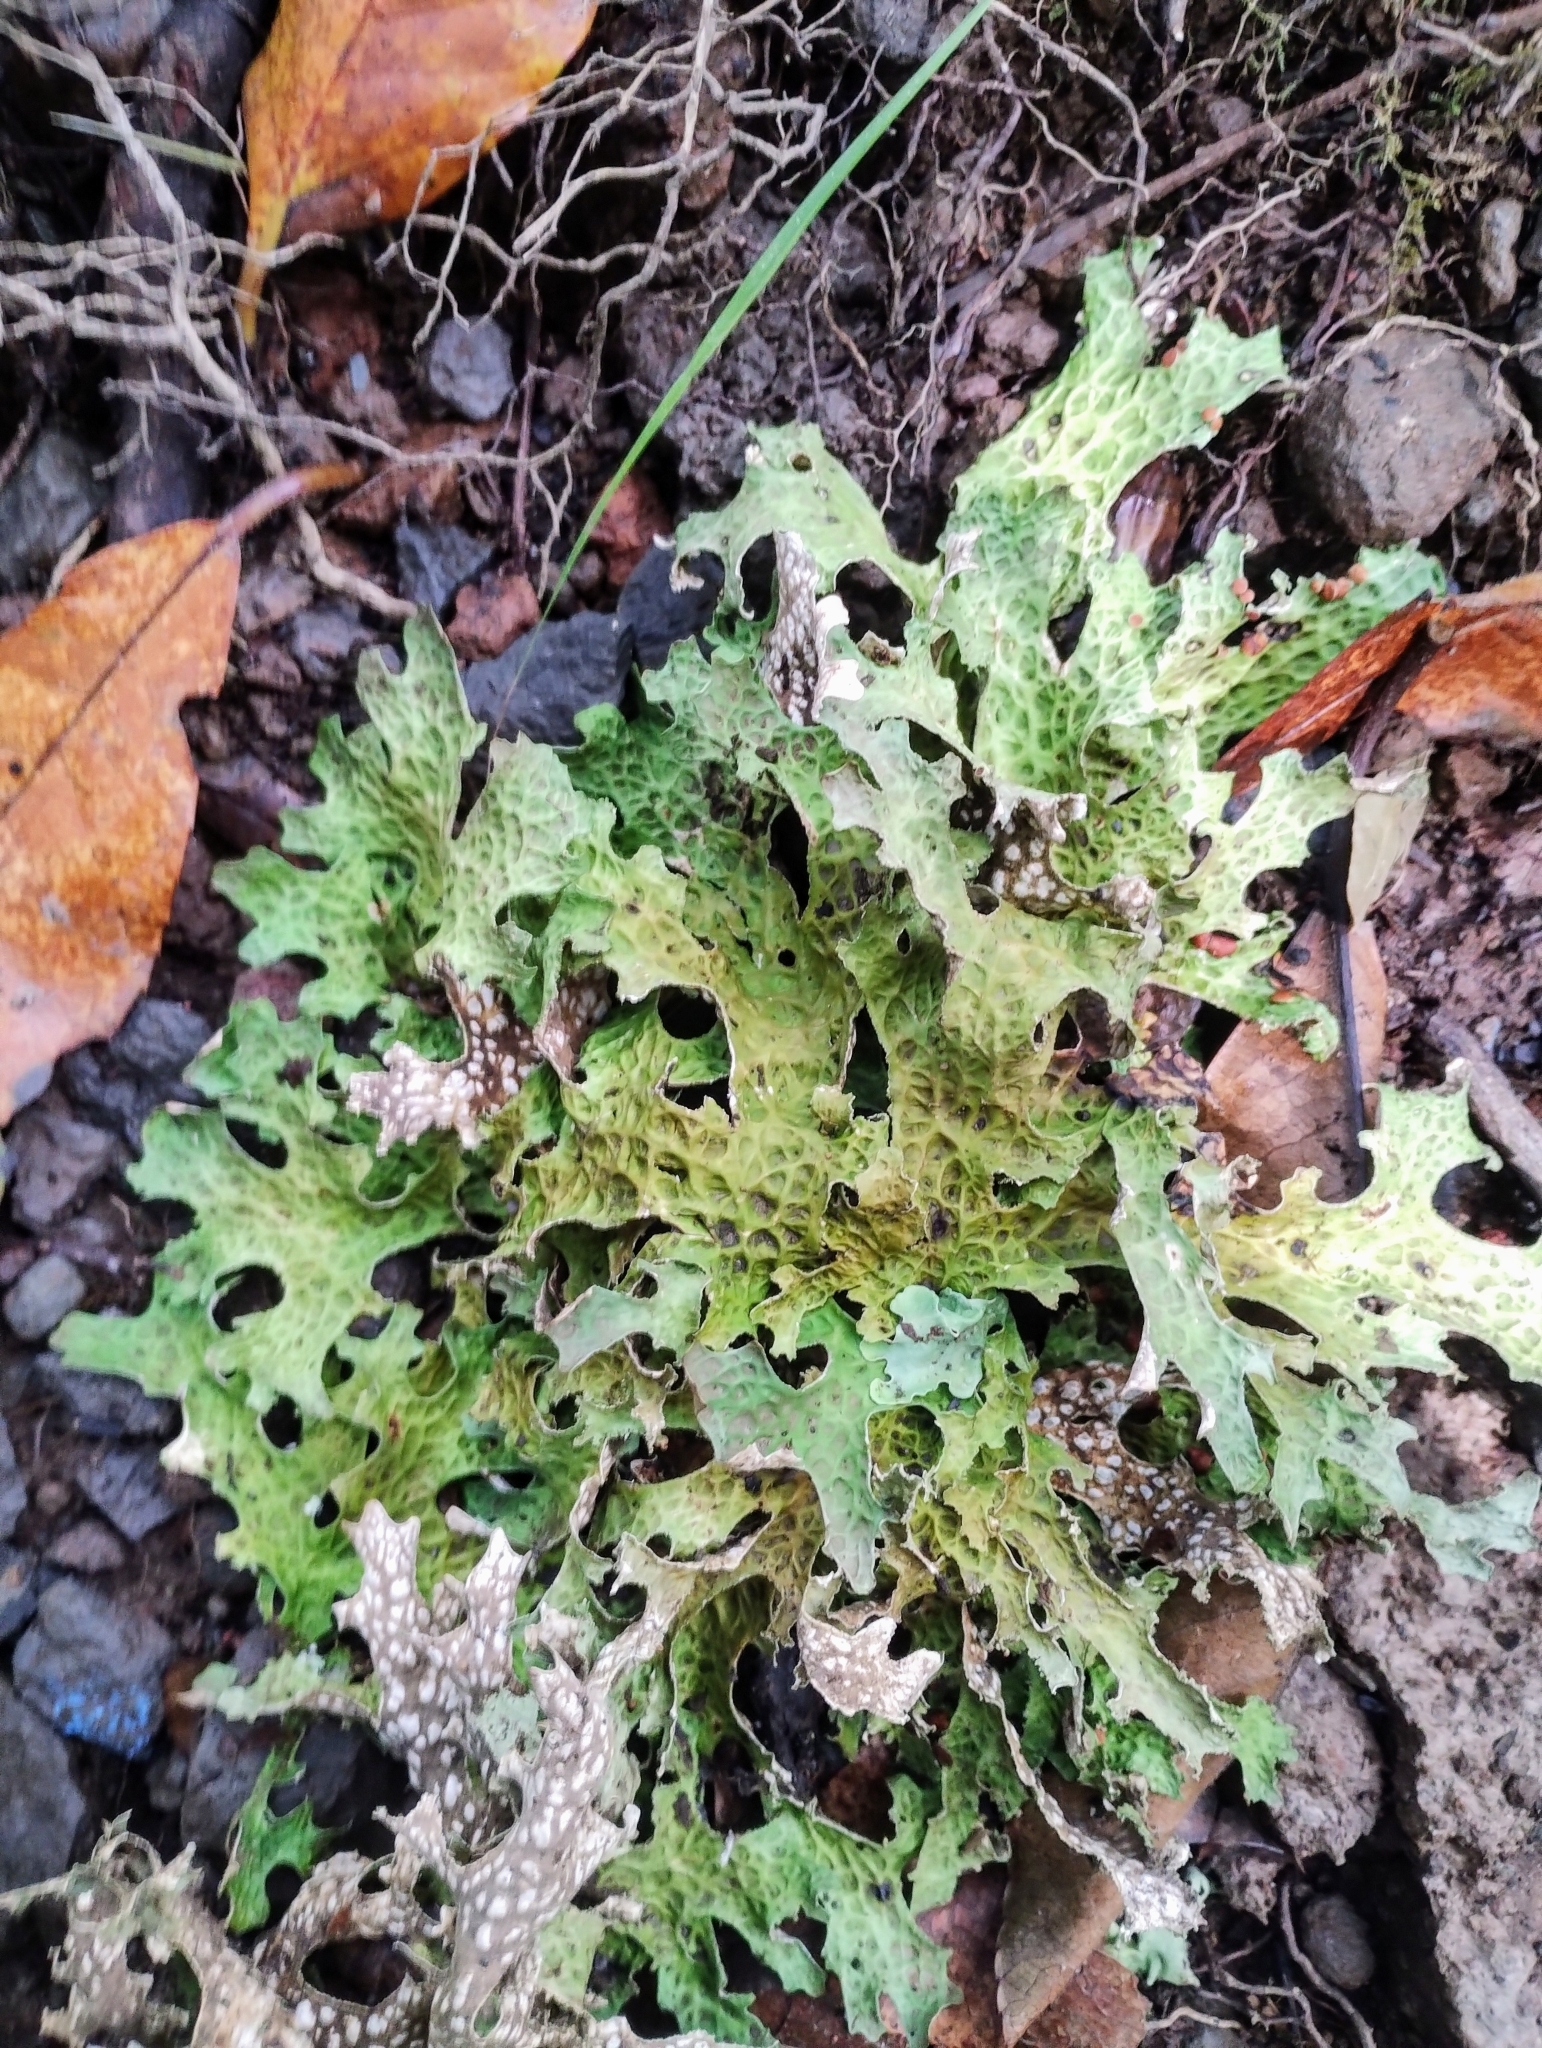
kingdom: Fungi
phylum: Ascomycota
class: Lecanoromycetes
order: Peltigerales
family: Lobariaceae
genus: Lobaria
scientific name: Lobaria pulmonaria
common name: Lungwort
